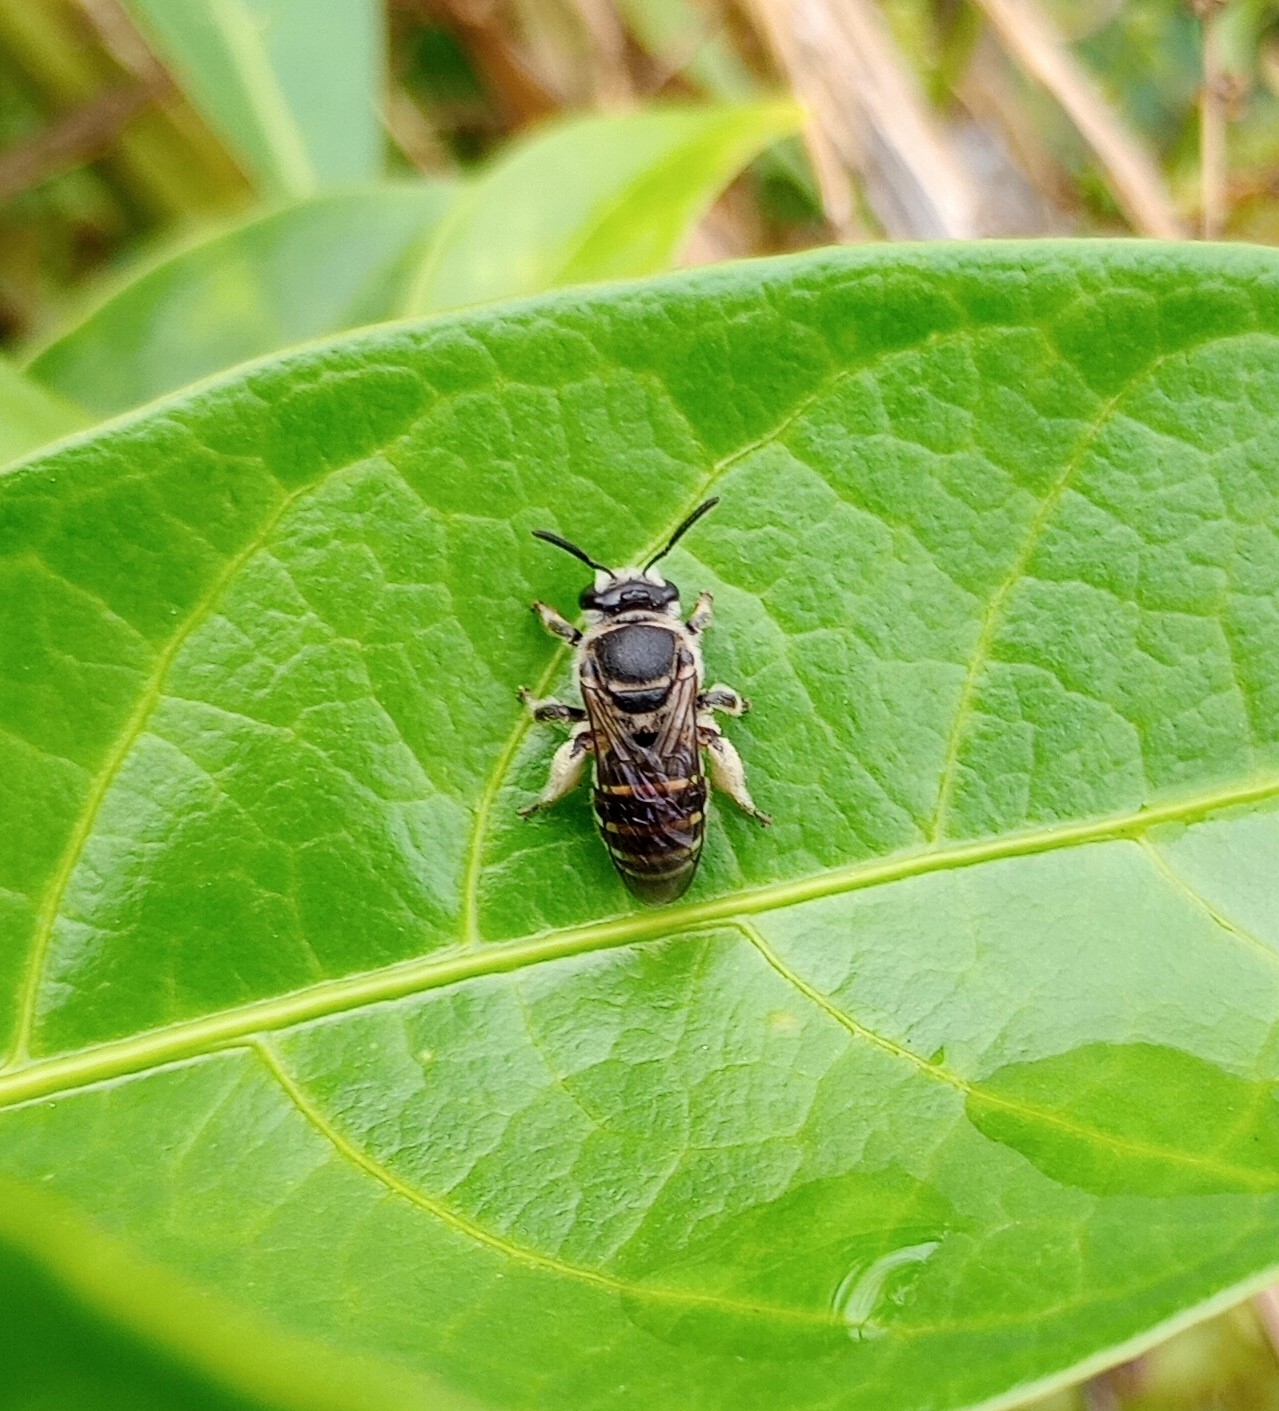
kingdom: Animalia
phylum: Arthropoda
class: Insecta
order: Hymenoptera
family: Halictidae
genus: Nomia
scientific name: Nomia ellioti
